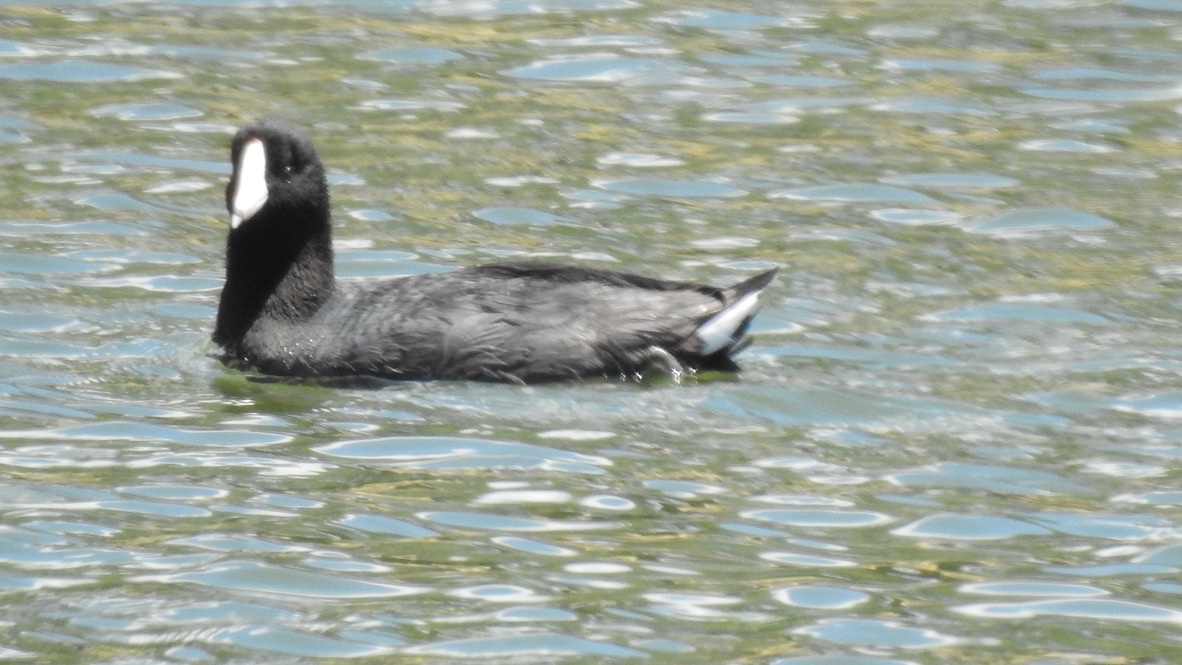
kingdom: Animalia
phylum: Chordata
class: Aves
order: Gruiformes
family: Rallidae
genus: Fulica
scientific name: Fulica americana
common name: American coot
